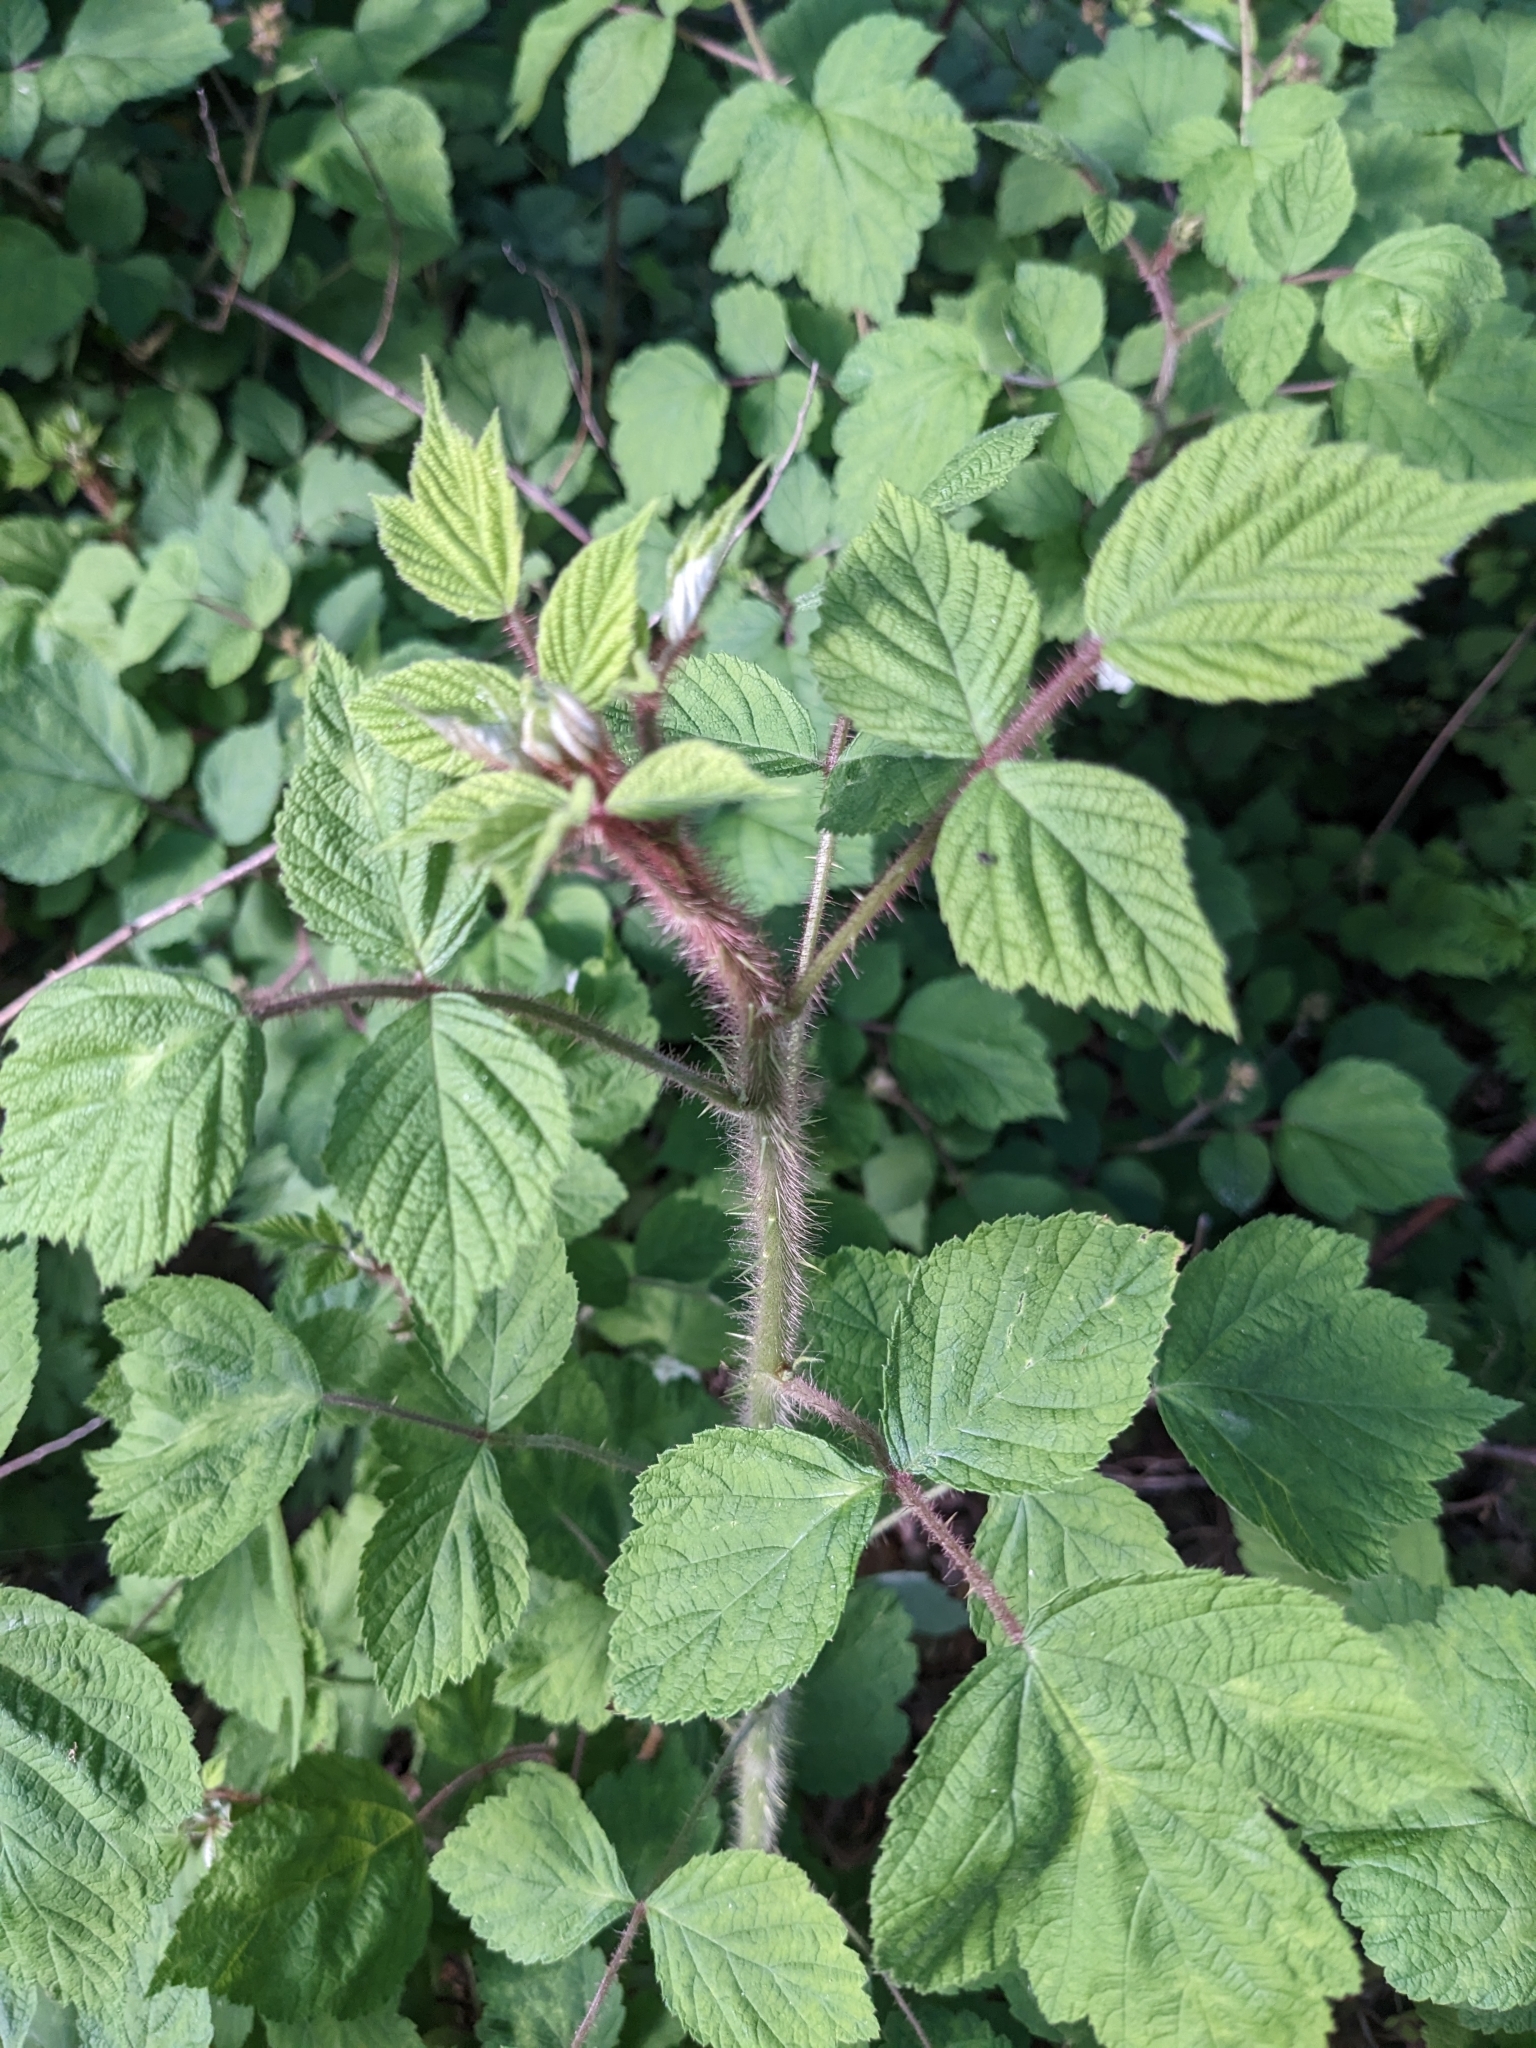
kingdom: Plantae
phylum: Tracheophyta
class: Magnoliopsida
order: Rosales
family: Rosaceae
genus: Rubus
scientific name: Rubus phoenicolasius
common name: Japanese wineberry
